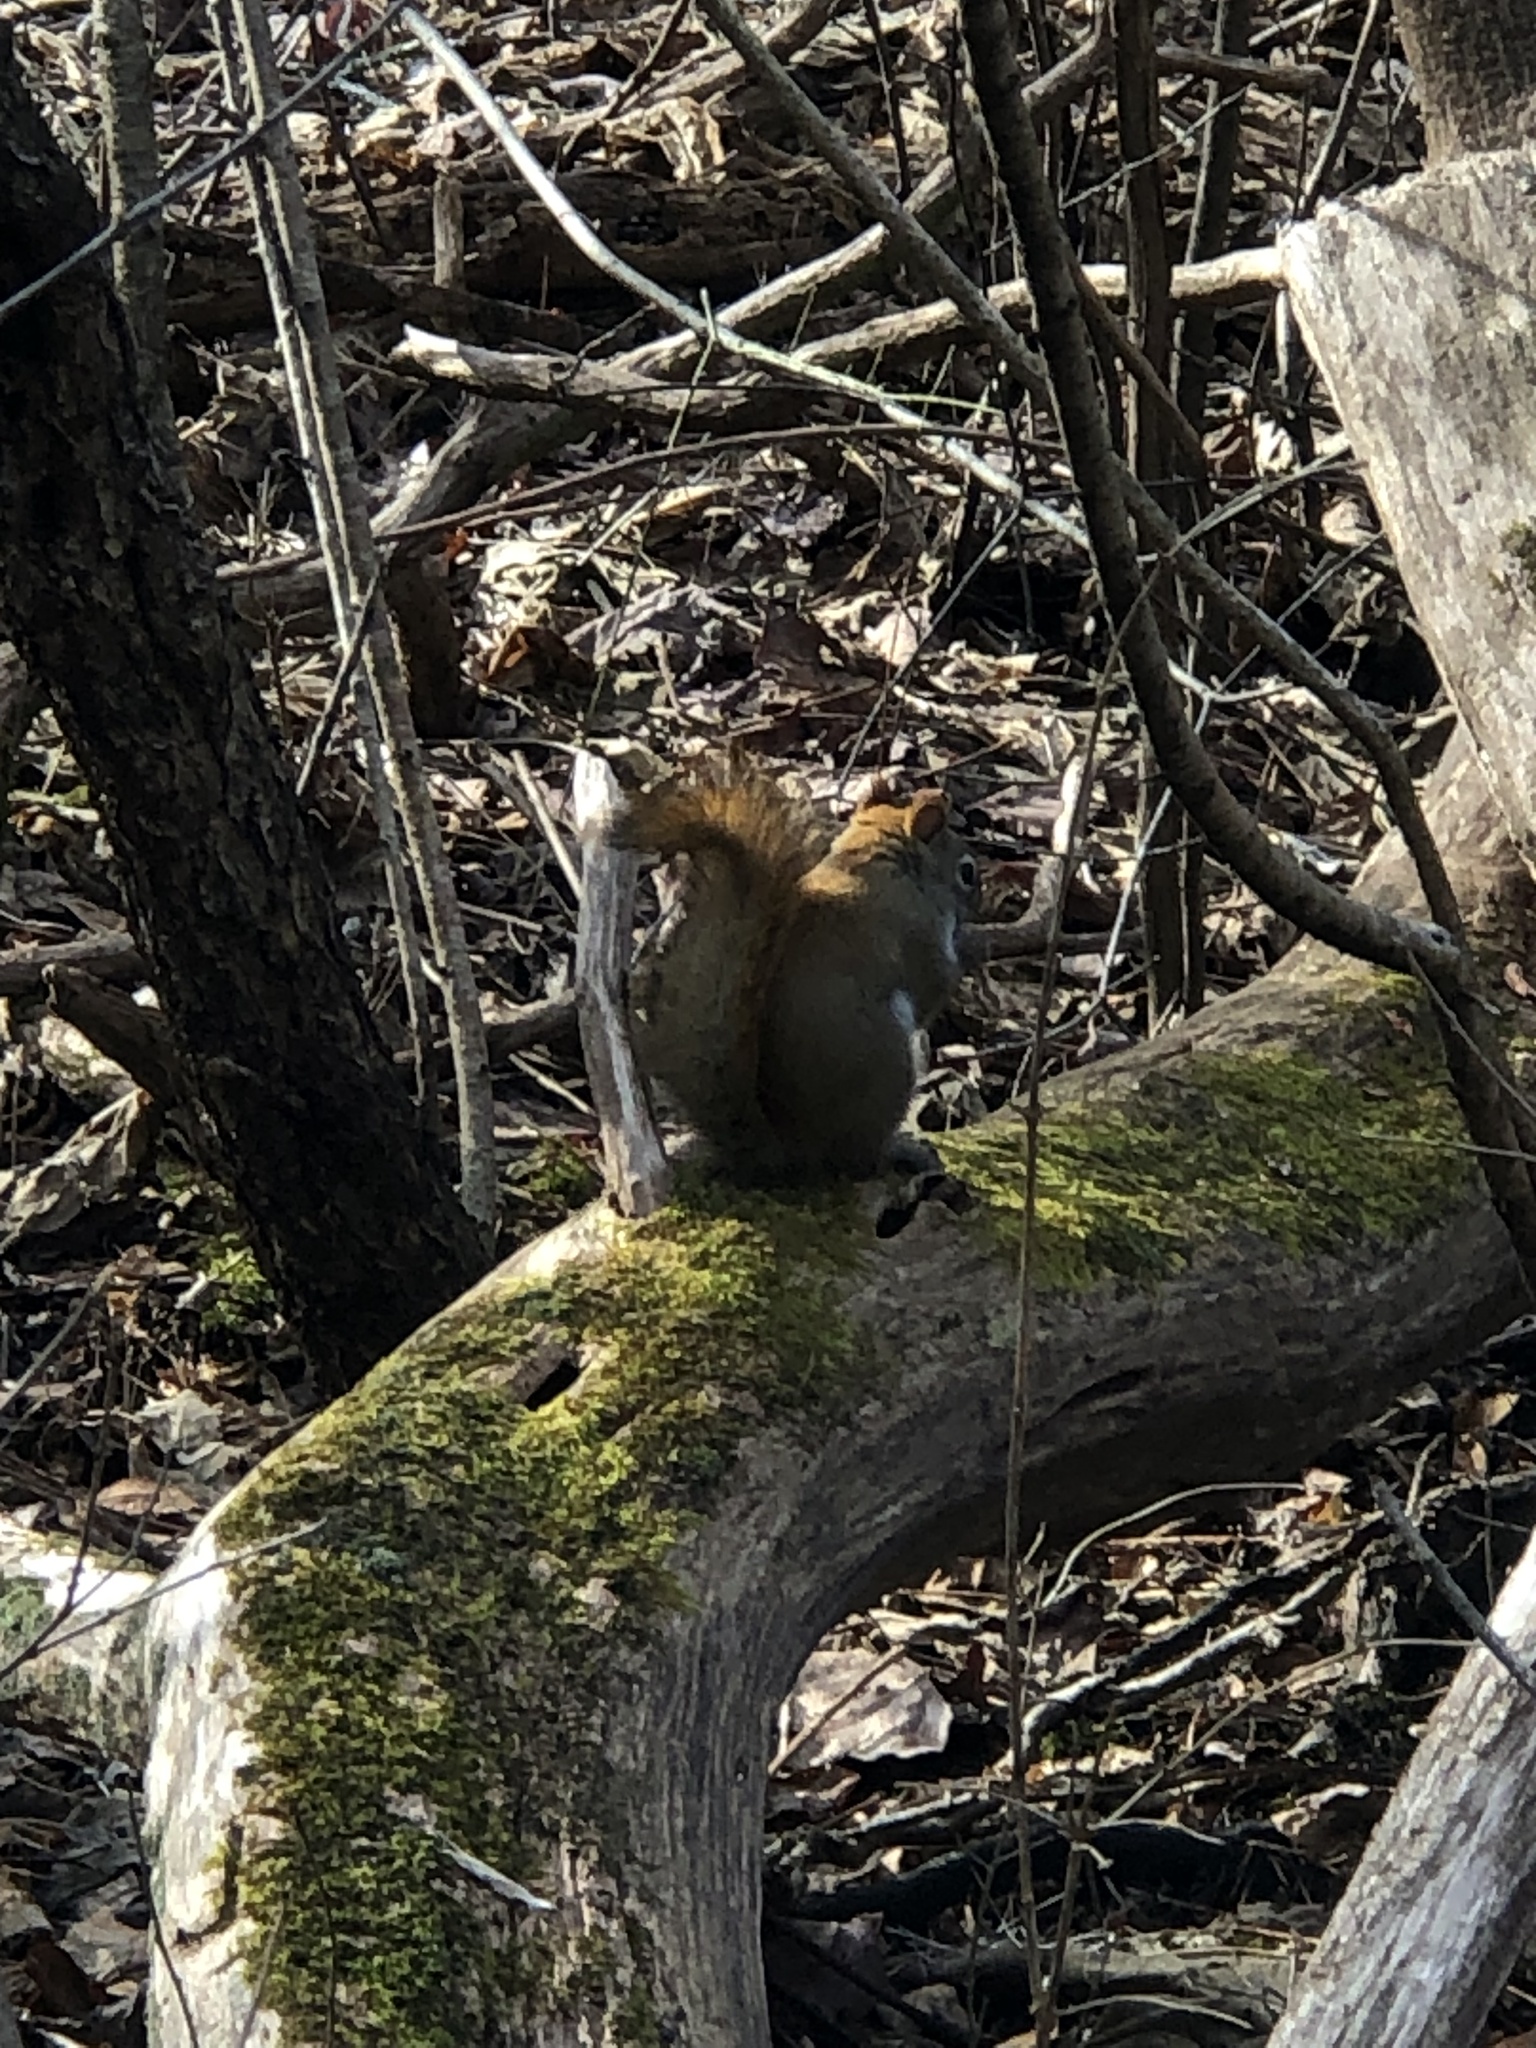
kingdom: Animalia
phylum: Chordata
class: Mammalia
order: Rodentia
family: Sciuridae
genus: Tamiasciurus
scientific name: Tamiasciurus hudsonicus
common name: Red squirrel
